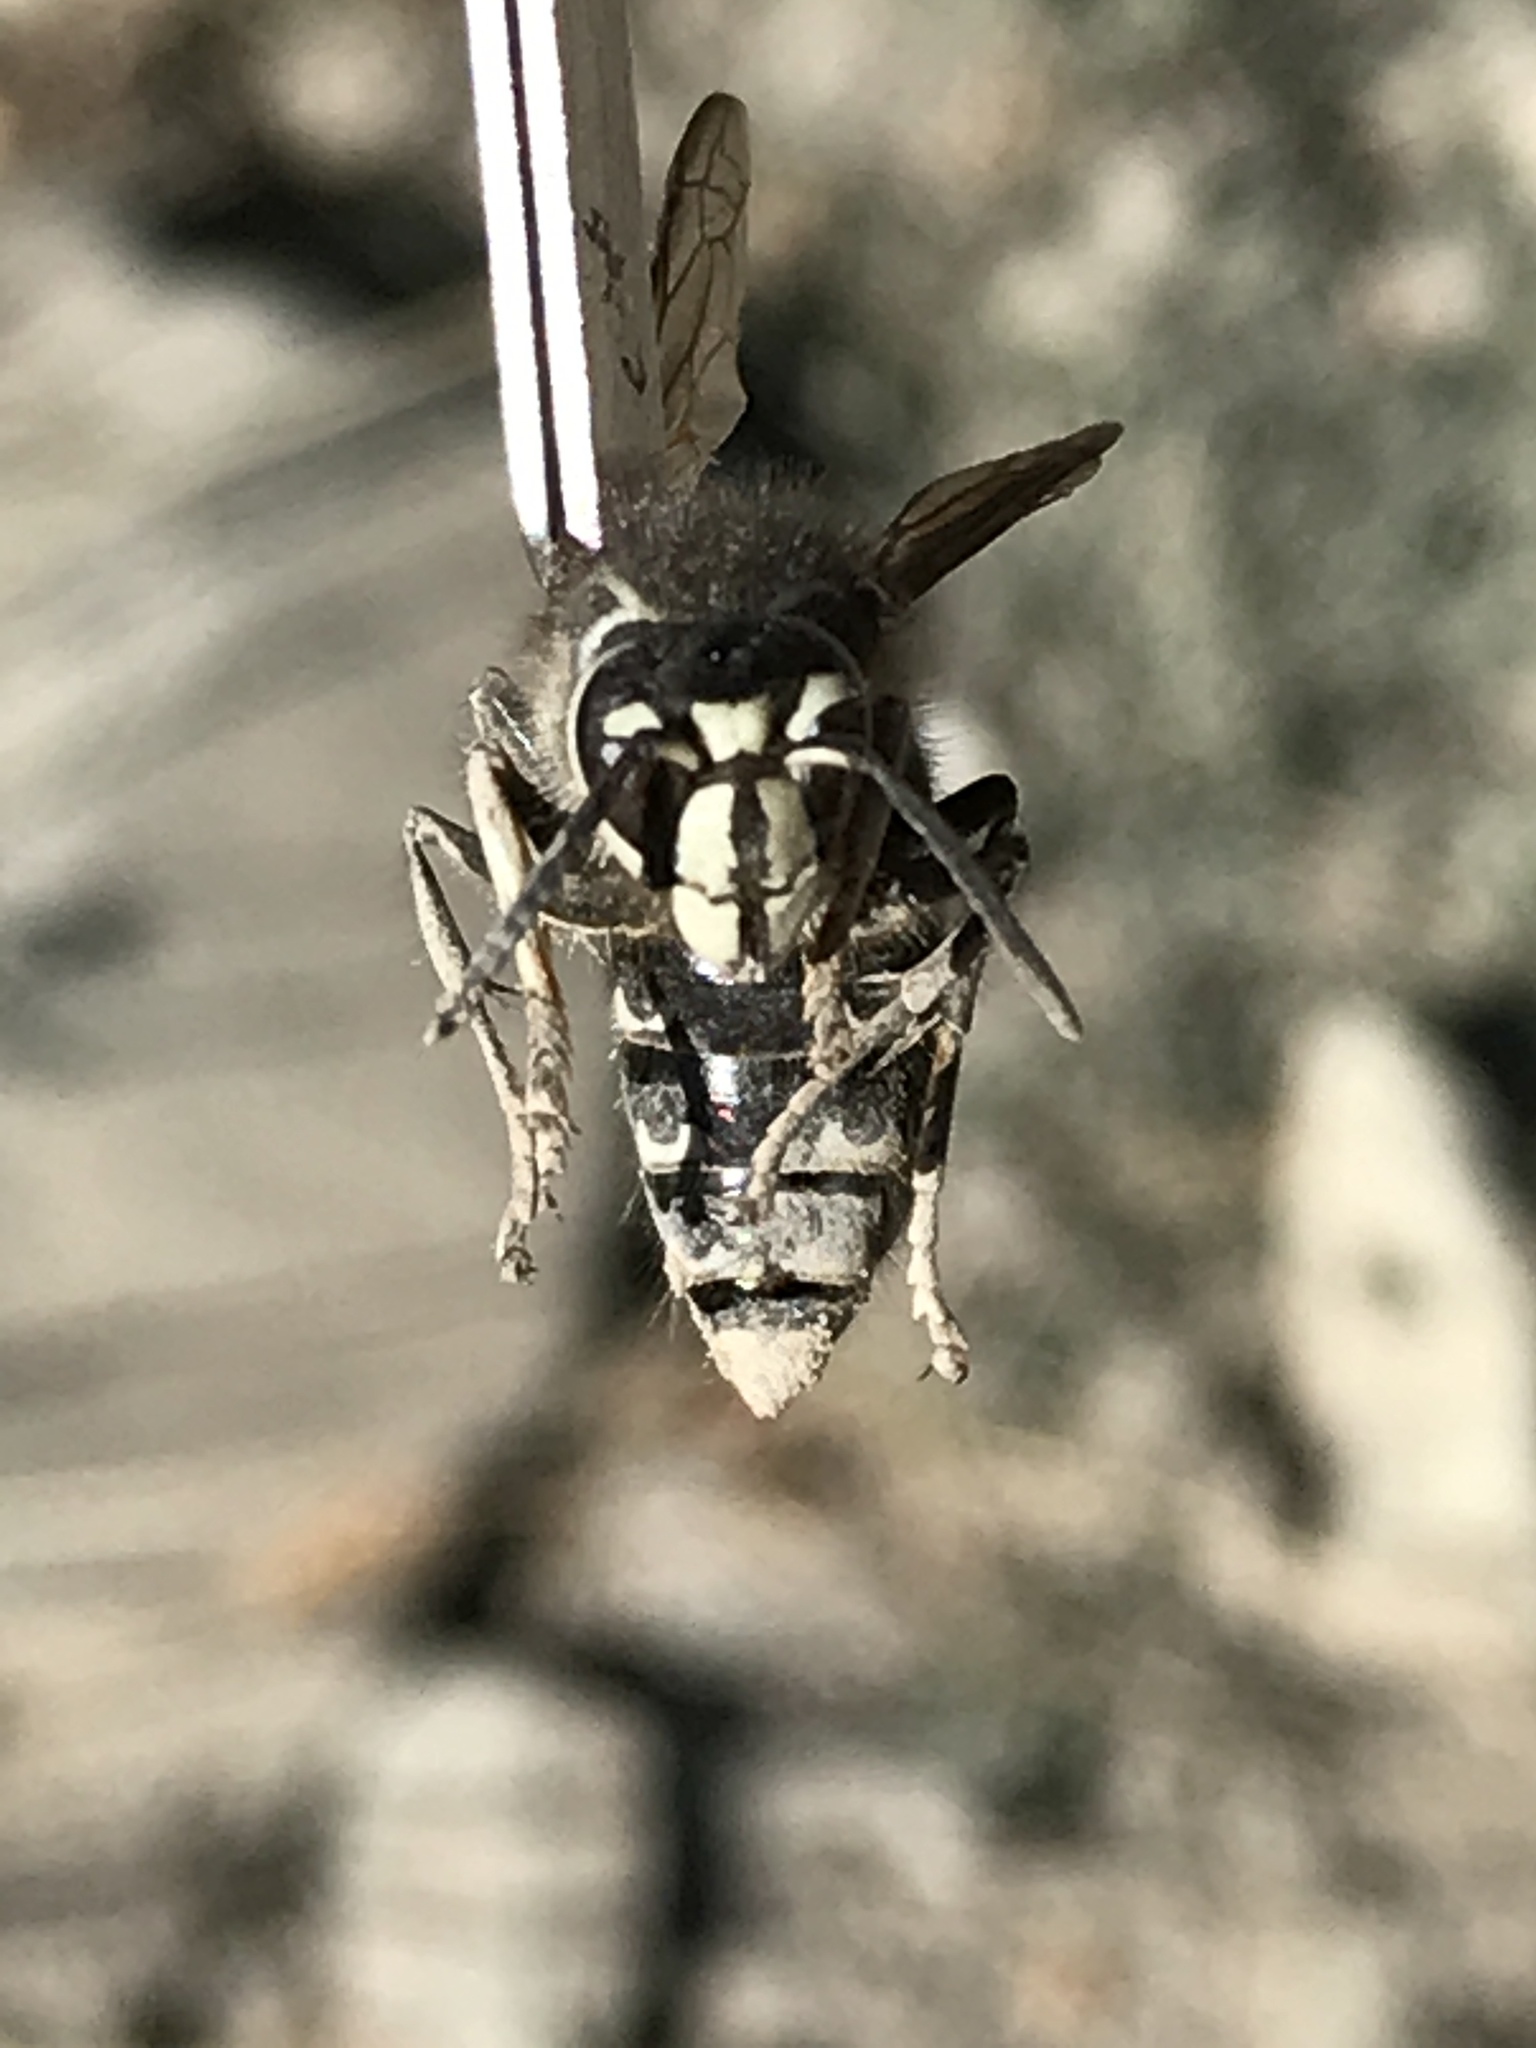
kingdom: Animalia
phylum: Arthropoda
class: Insecta
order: Hymenoptera
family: Vespidae
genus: Dolichovespula
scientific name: Dolichovespula maculata
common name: Bald-faced hornet
